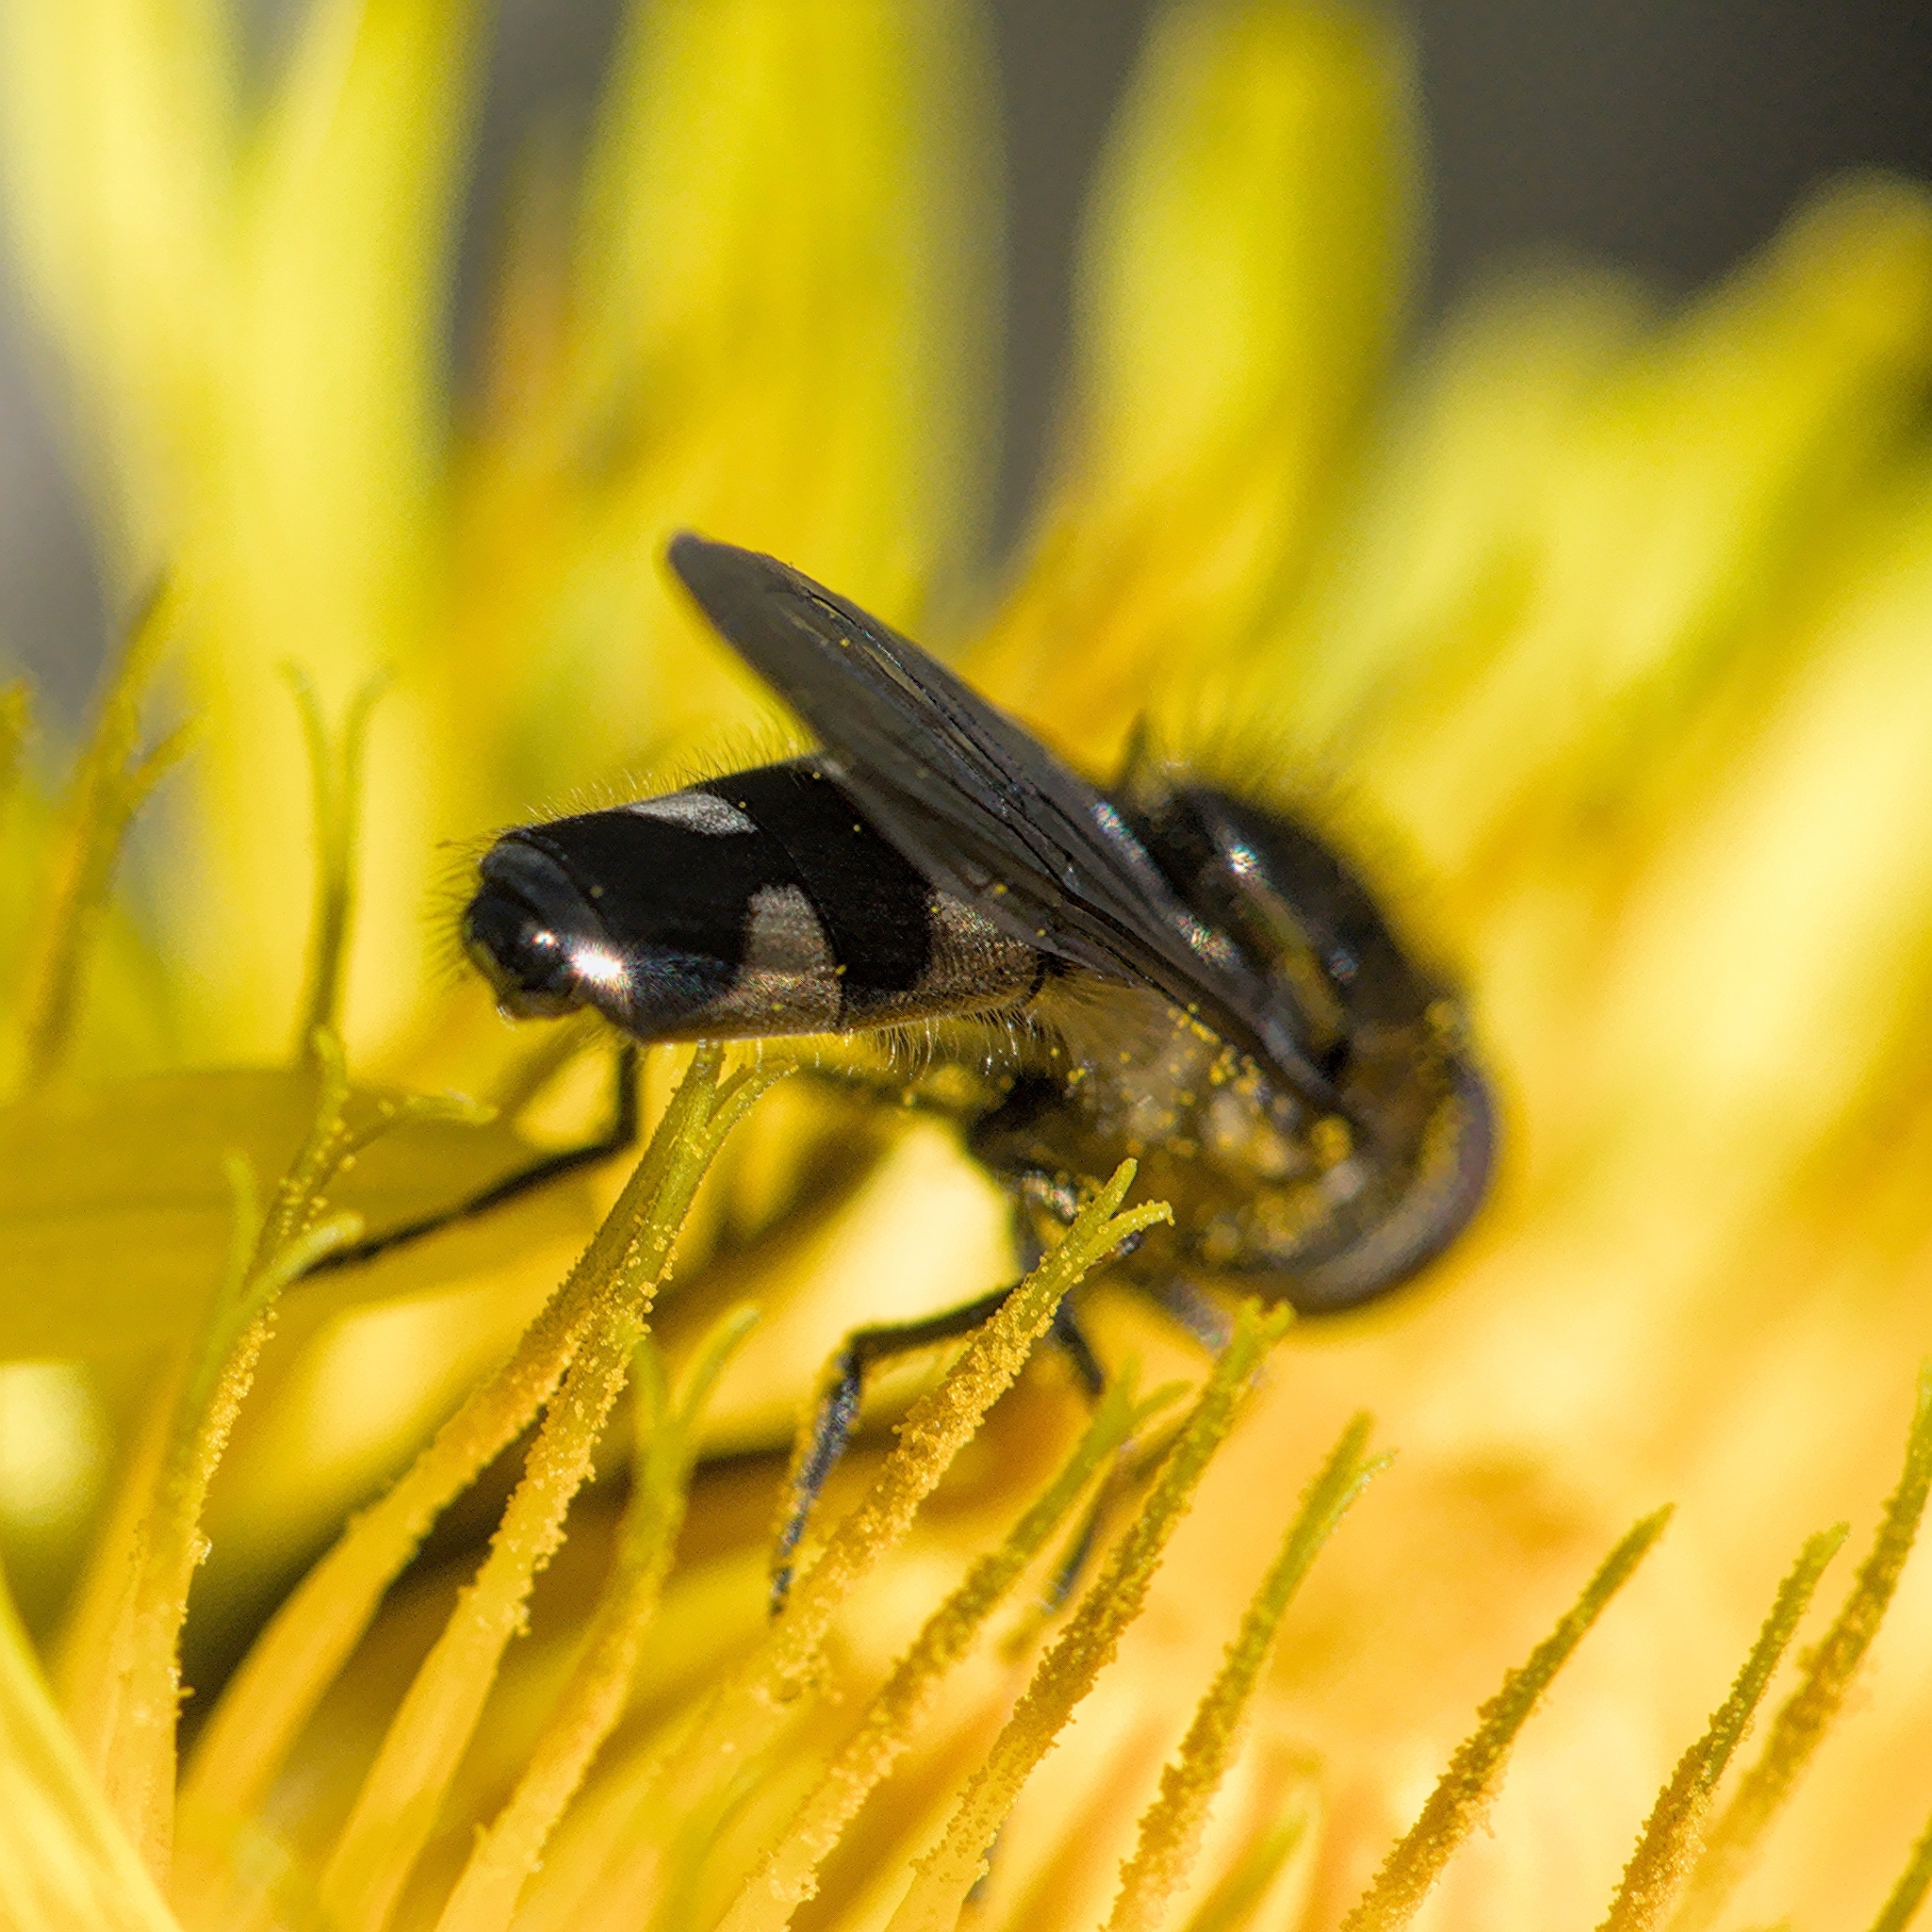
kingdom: Animalia
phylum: Arthropoda
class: Insecta
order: Diptera
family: Syrphidae
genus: Platycheirus
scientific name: Platycheirus albimanus
